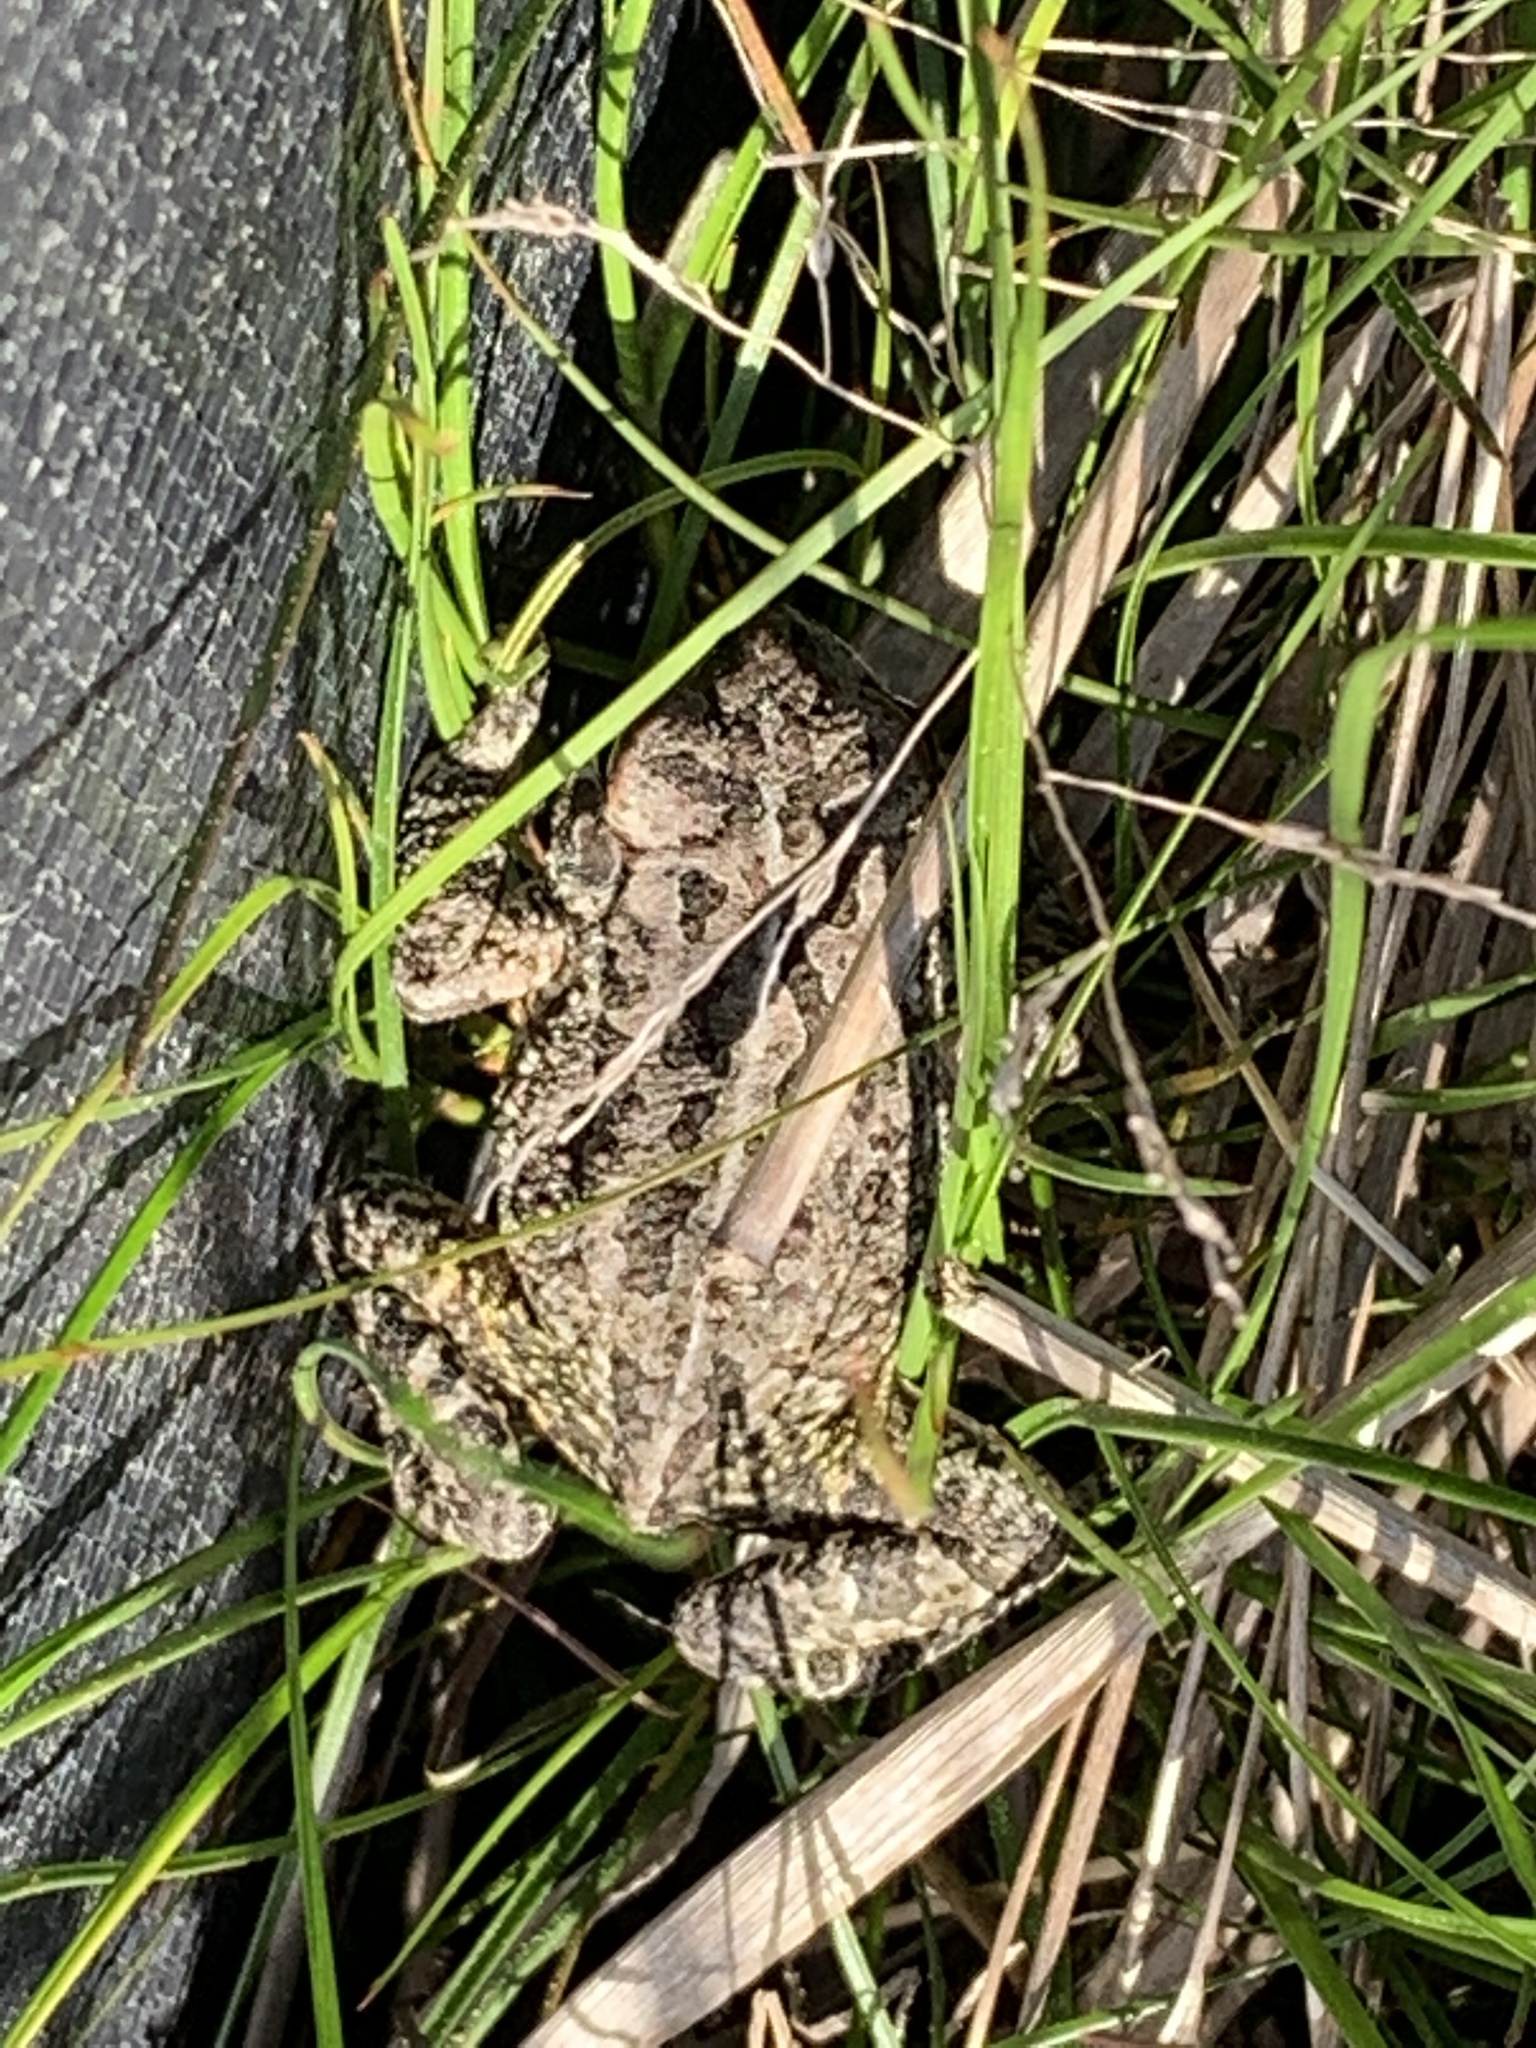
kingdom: Animalia
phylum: Chordata
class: Amphibia
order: Anura
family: Bufonidae
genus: Anaxyrus
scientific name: Anaxyrus fowleri
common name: Fowler's toad
